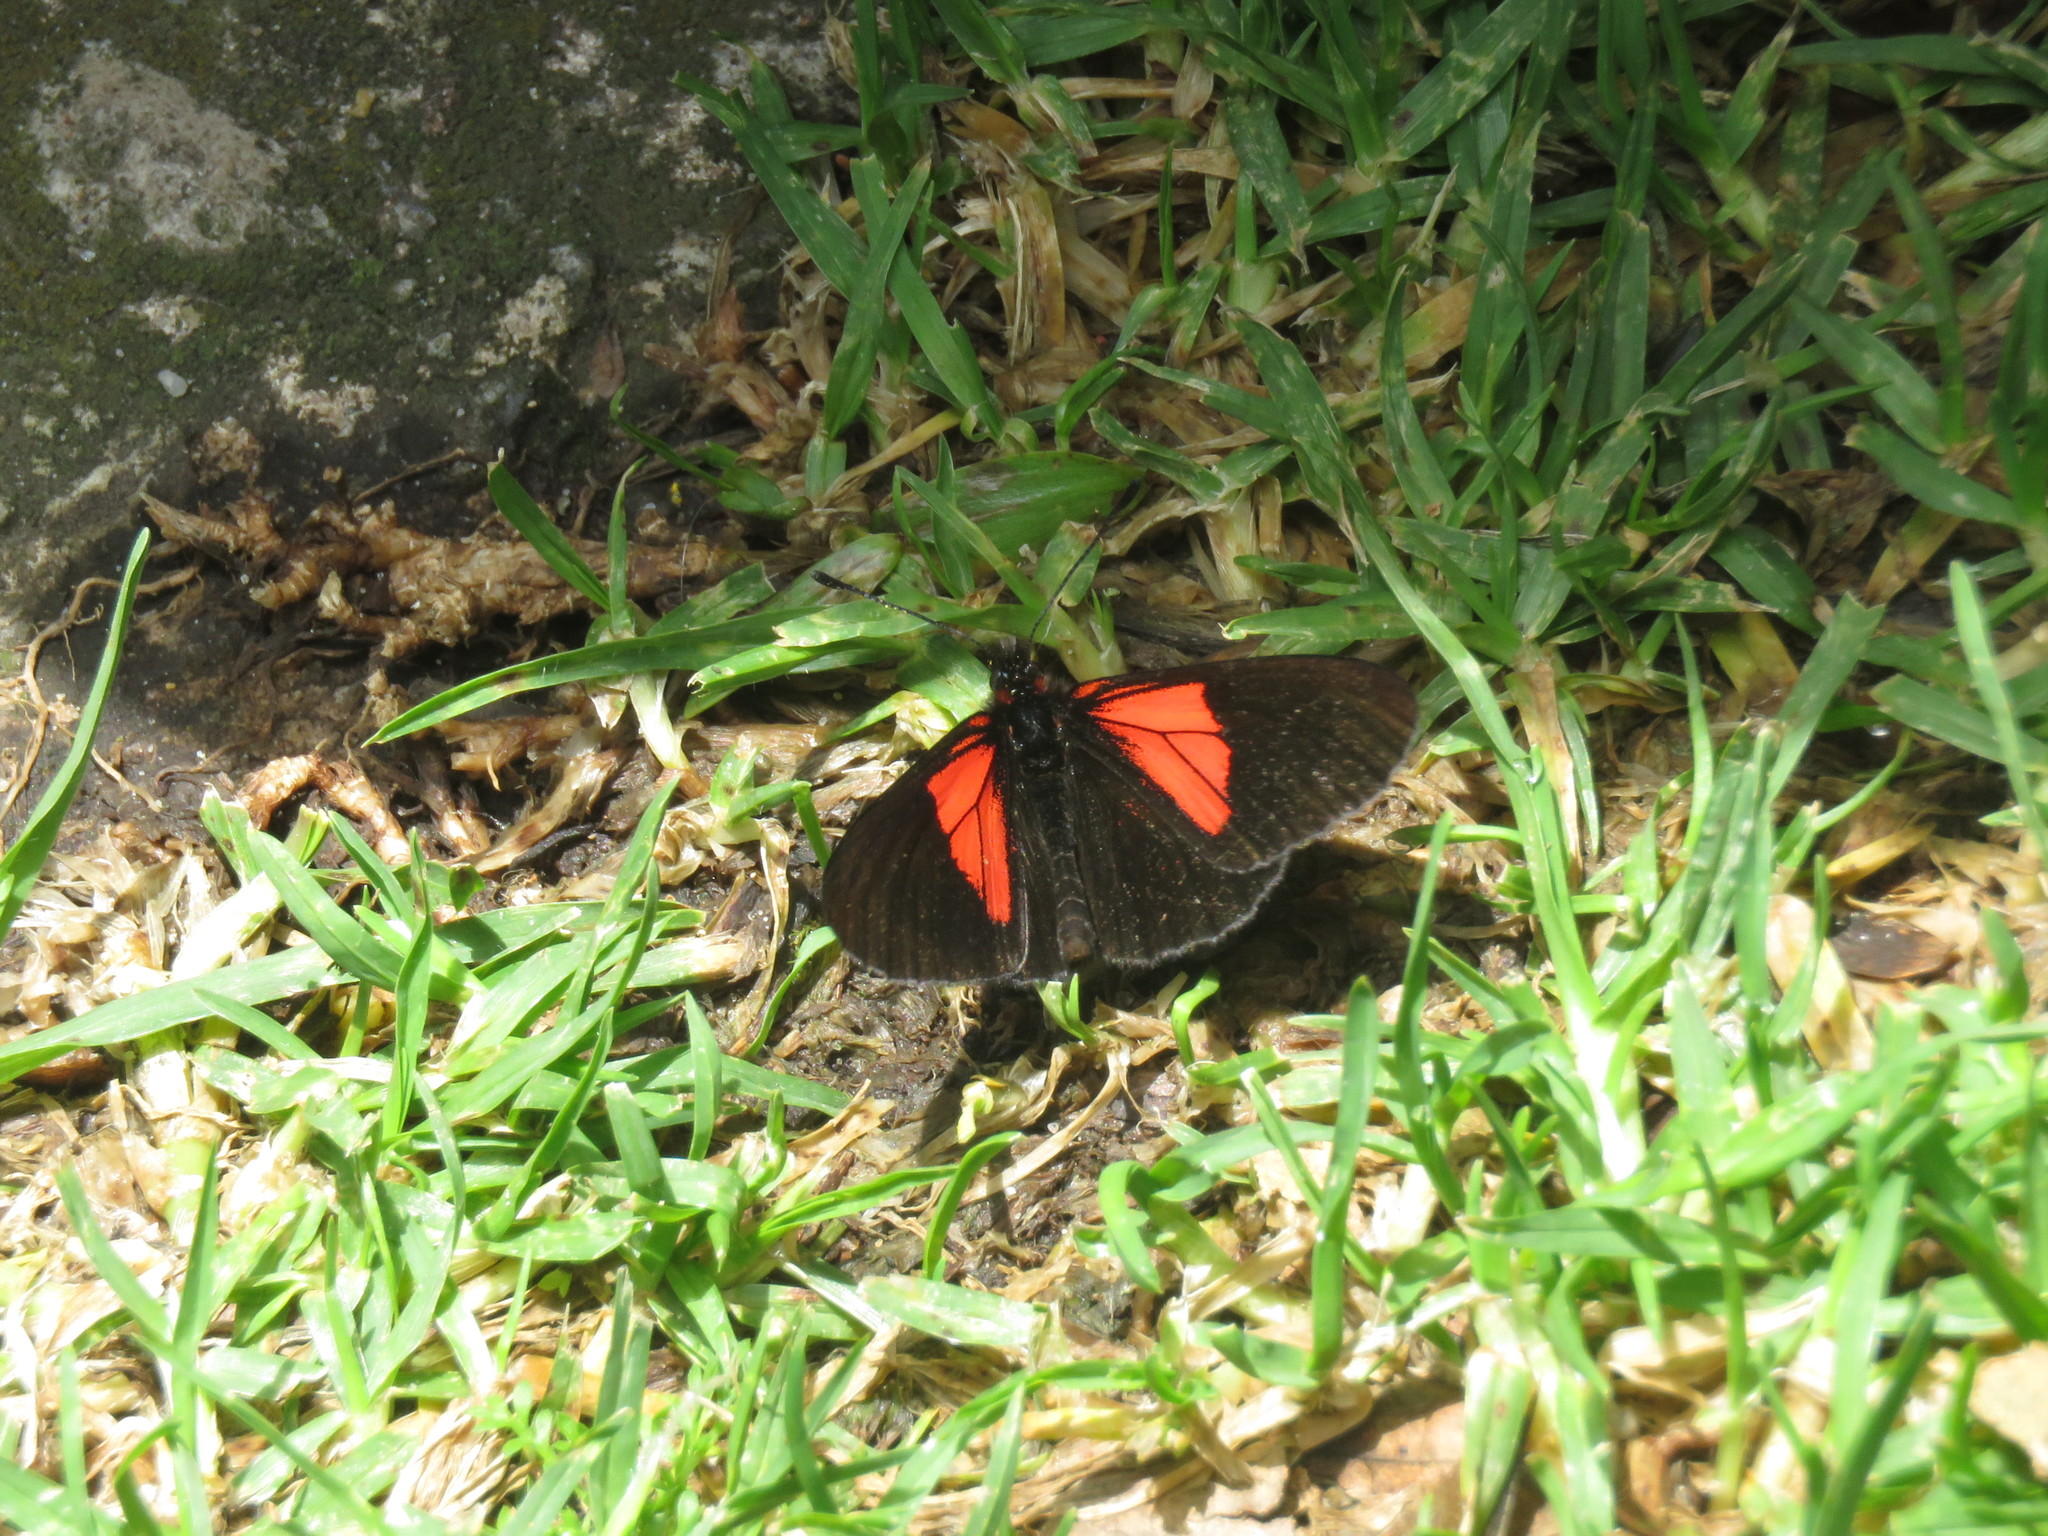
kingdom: Animalia
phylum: Arthropoda
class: Insecta
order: Lepidoptera
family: Nymphalidae
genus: Acraea
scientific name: Acraea Altinote trinacria
